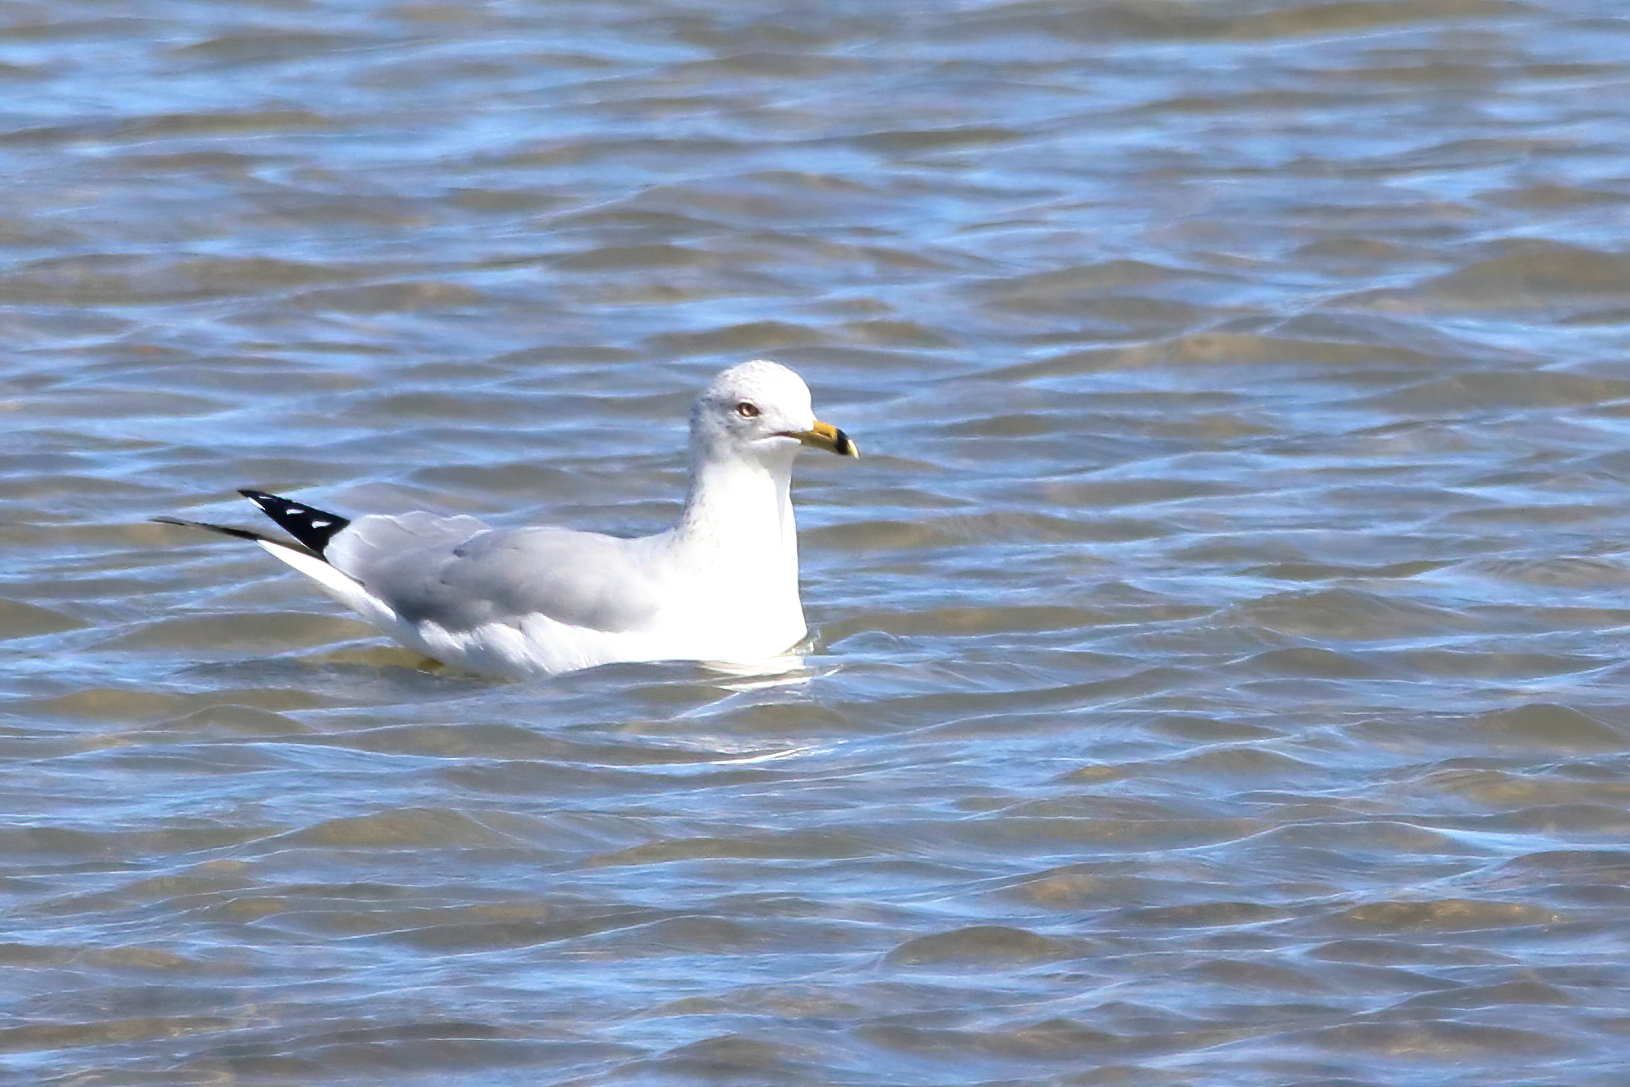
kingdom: Animalia
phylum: Chordata
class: Aves
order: Charadriiformes
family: Laridae
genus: Larus
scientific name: Larus delawarensis
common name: Ring-billed gull
